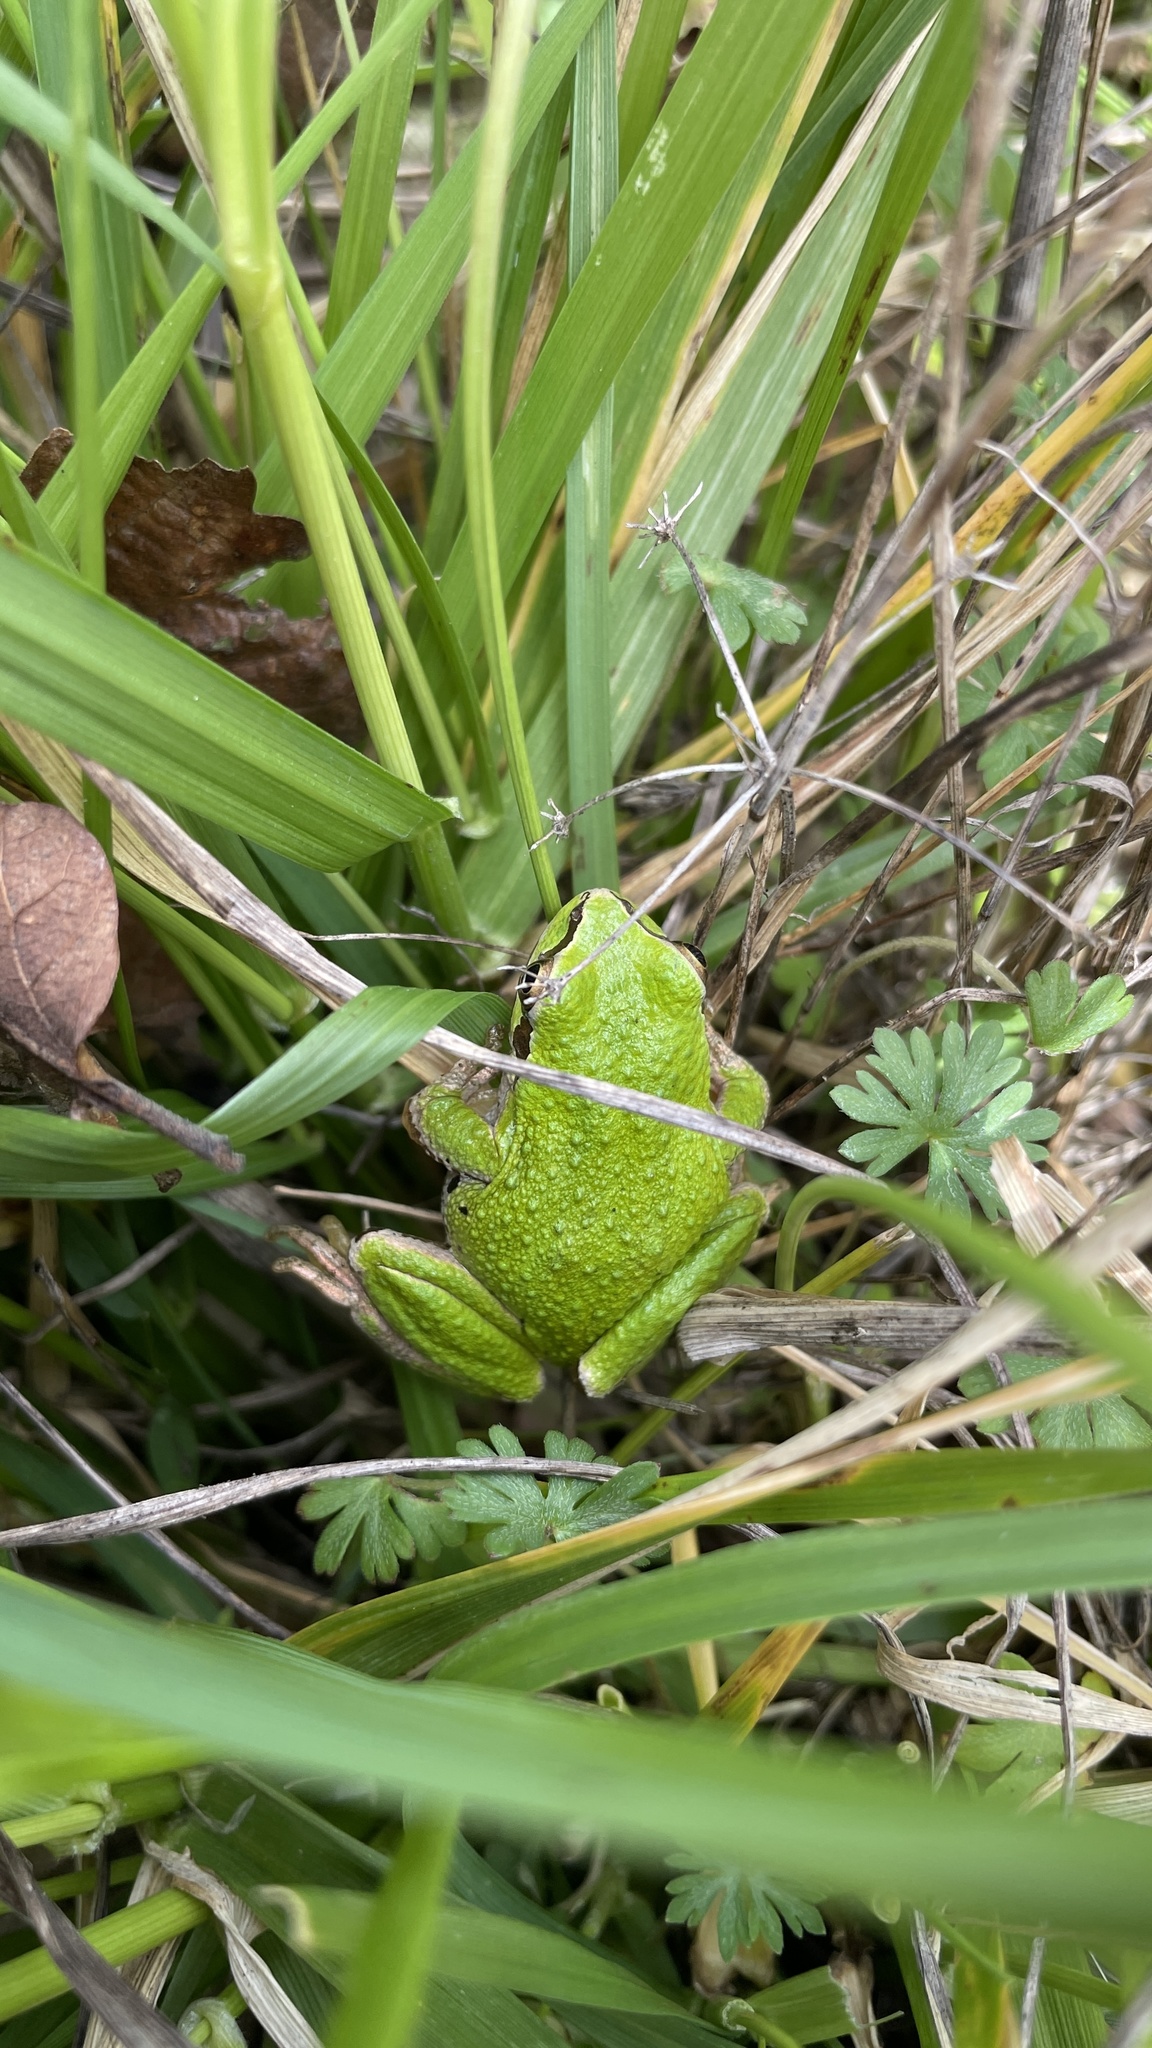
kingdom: Animalia
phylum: Chordata
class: Amphibia
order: Anura
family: Hylidae
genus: Pseudacris
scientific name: Pseudacris regilla
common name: Pacific chorus frog
